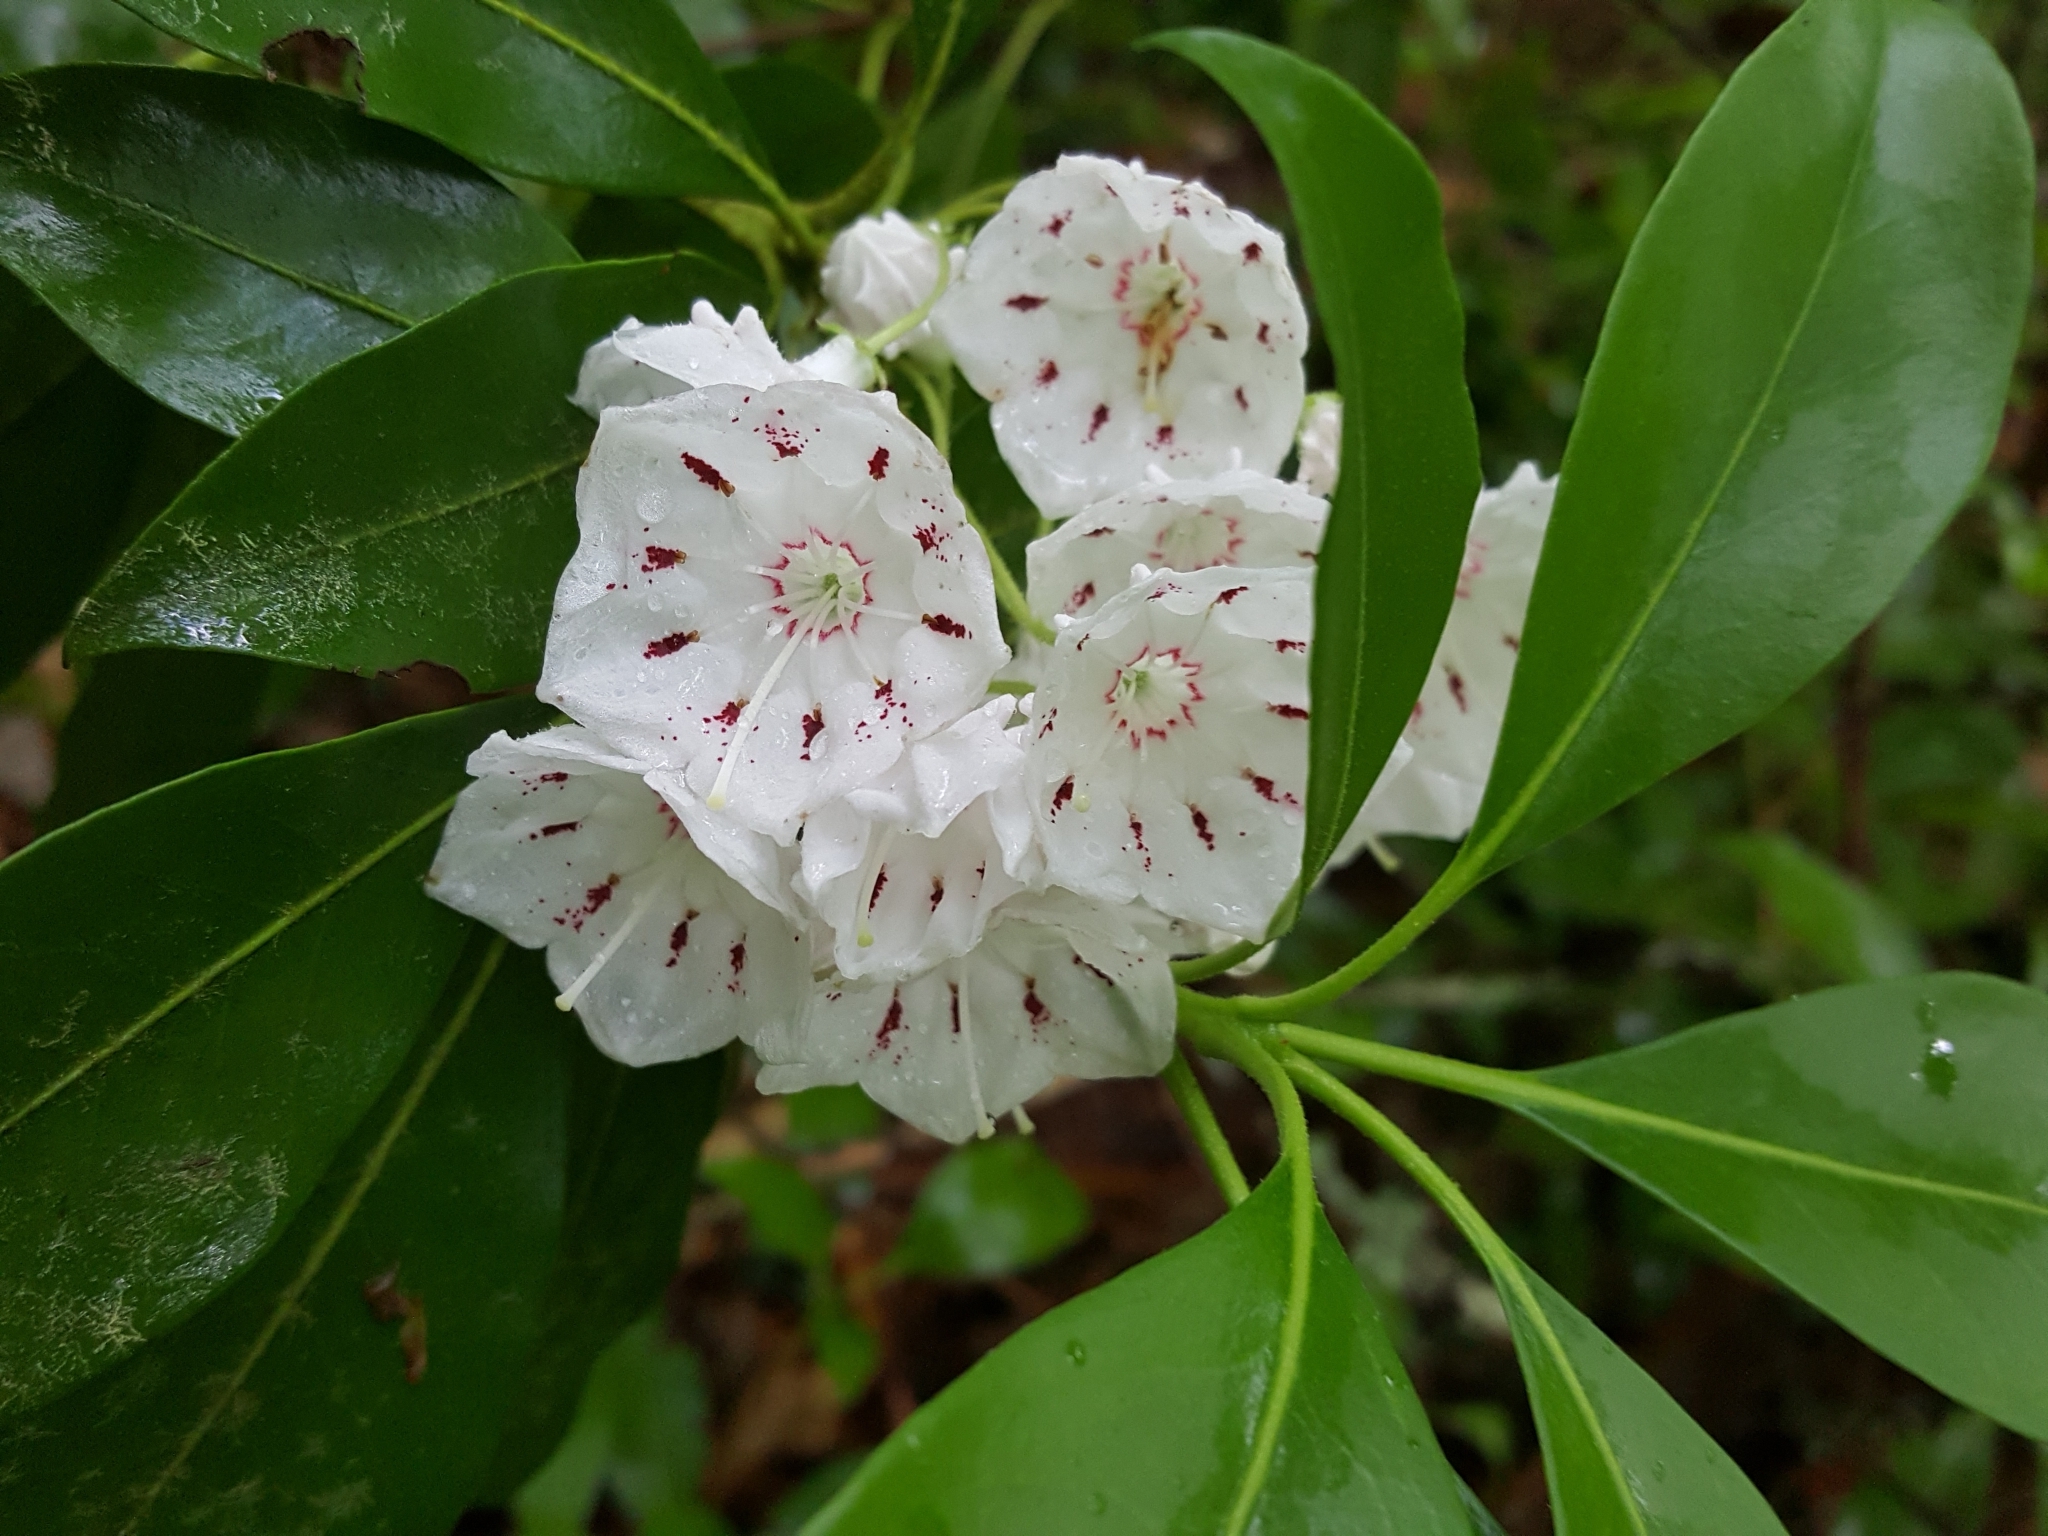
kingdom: Plantae
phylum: Tracheophyta
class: Magnoliopsida
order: Ericales
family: Ericaceae
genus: Kalmia
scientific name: Kalmia latifolia
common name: Mountain-laurel
